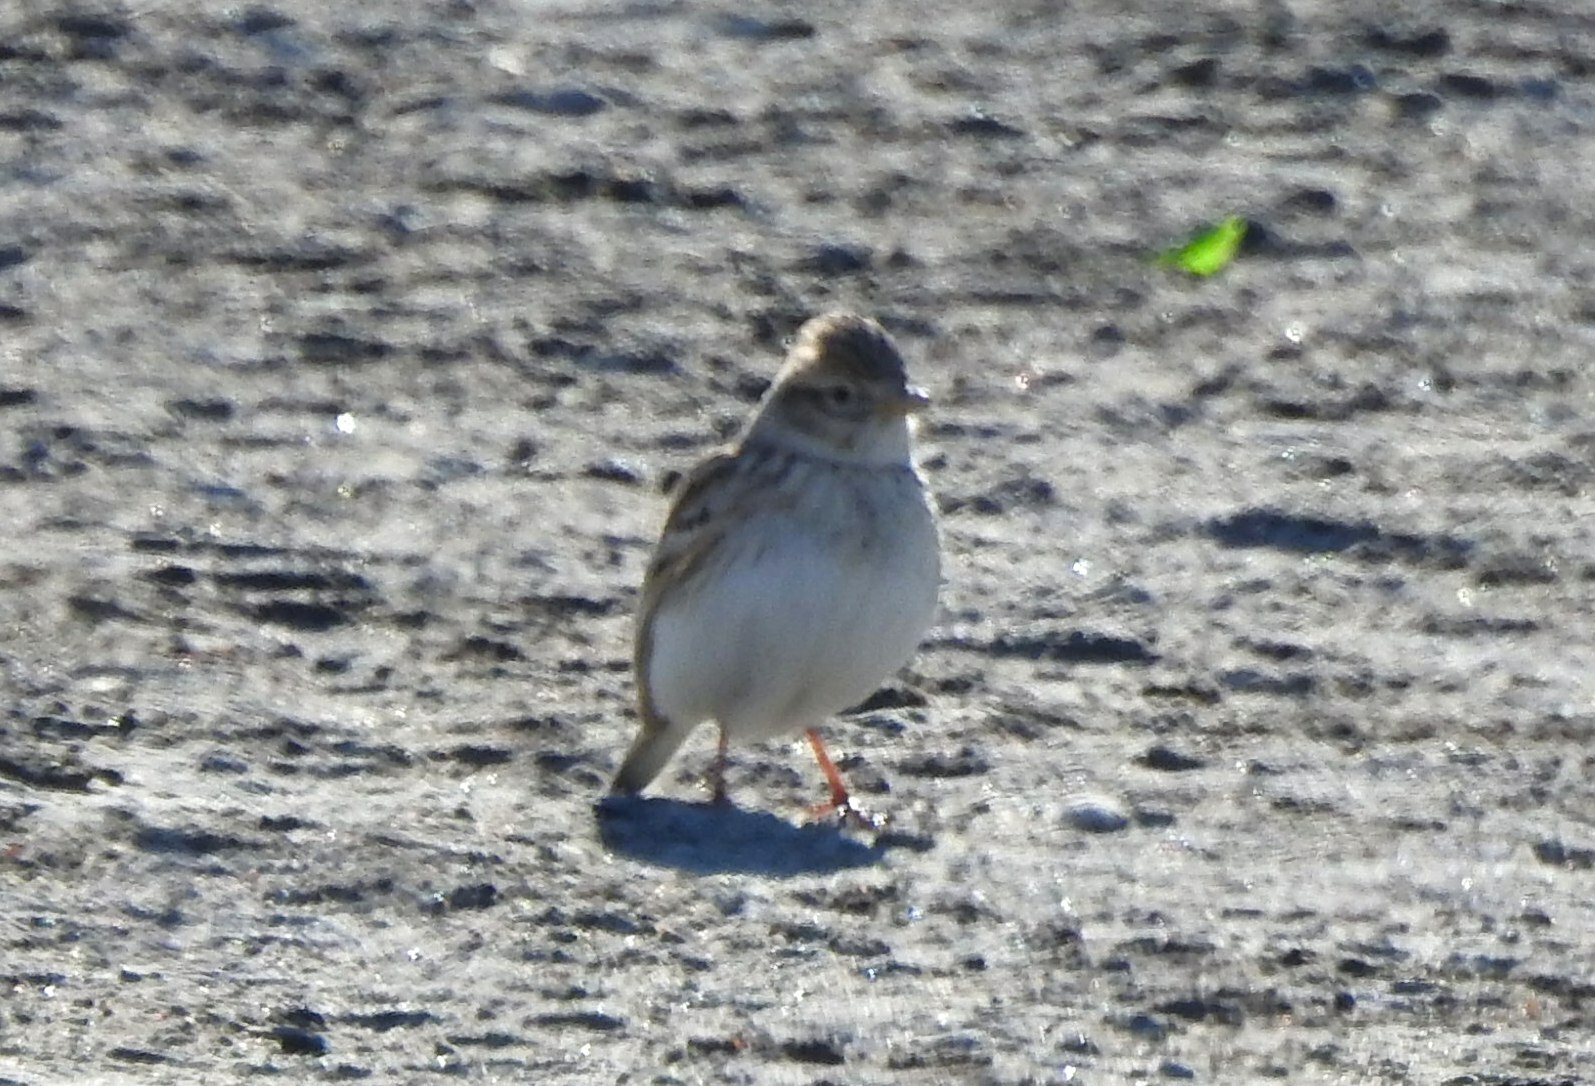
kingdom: Animalia
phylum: Chordata
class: Aves
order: Passeriformes
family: Alaudidae
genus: Alaudala
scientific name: Alaudala cheleensis
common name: Asian short-toed lark
